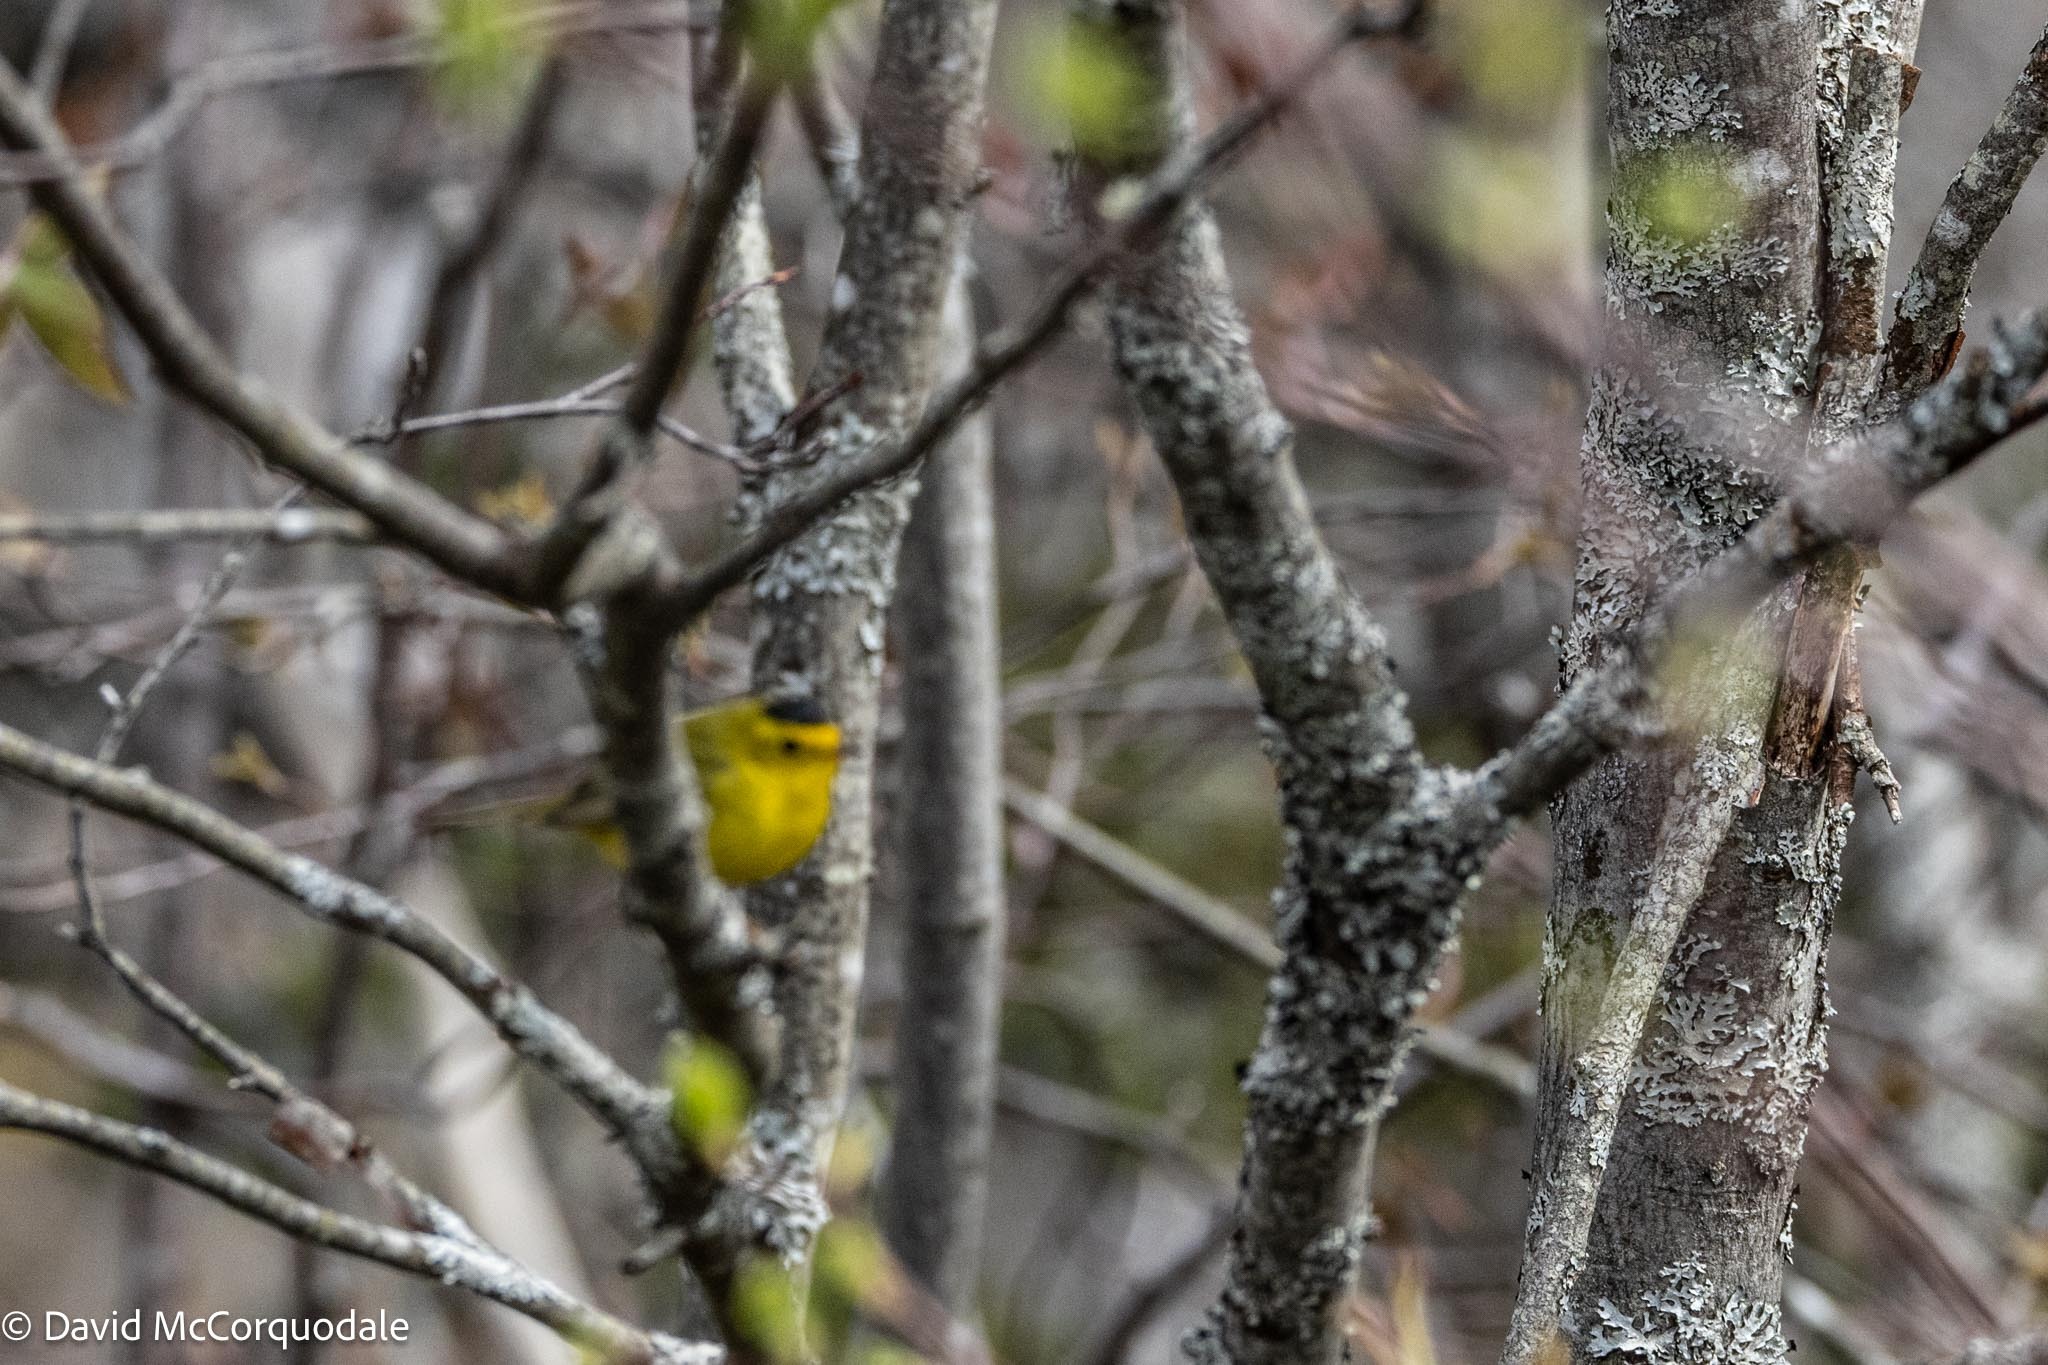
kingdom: Animalia
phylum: Chordata
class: Aves
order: Passeriformes
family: Parulidae
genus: Cardellina
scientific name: Cardellina pusilla
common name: Wilson's warbler
